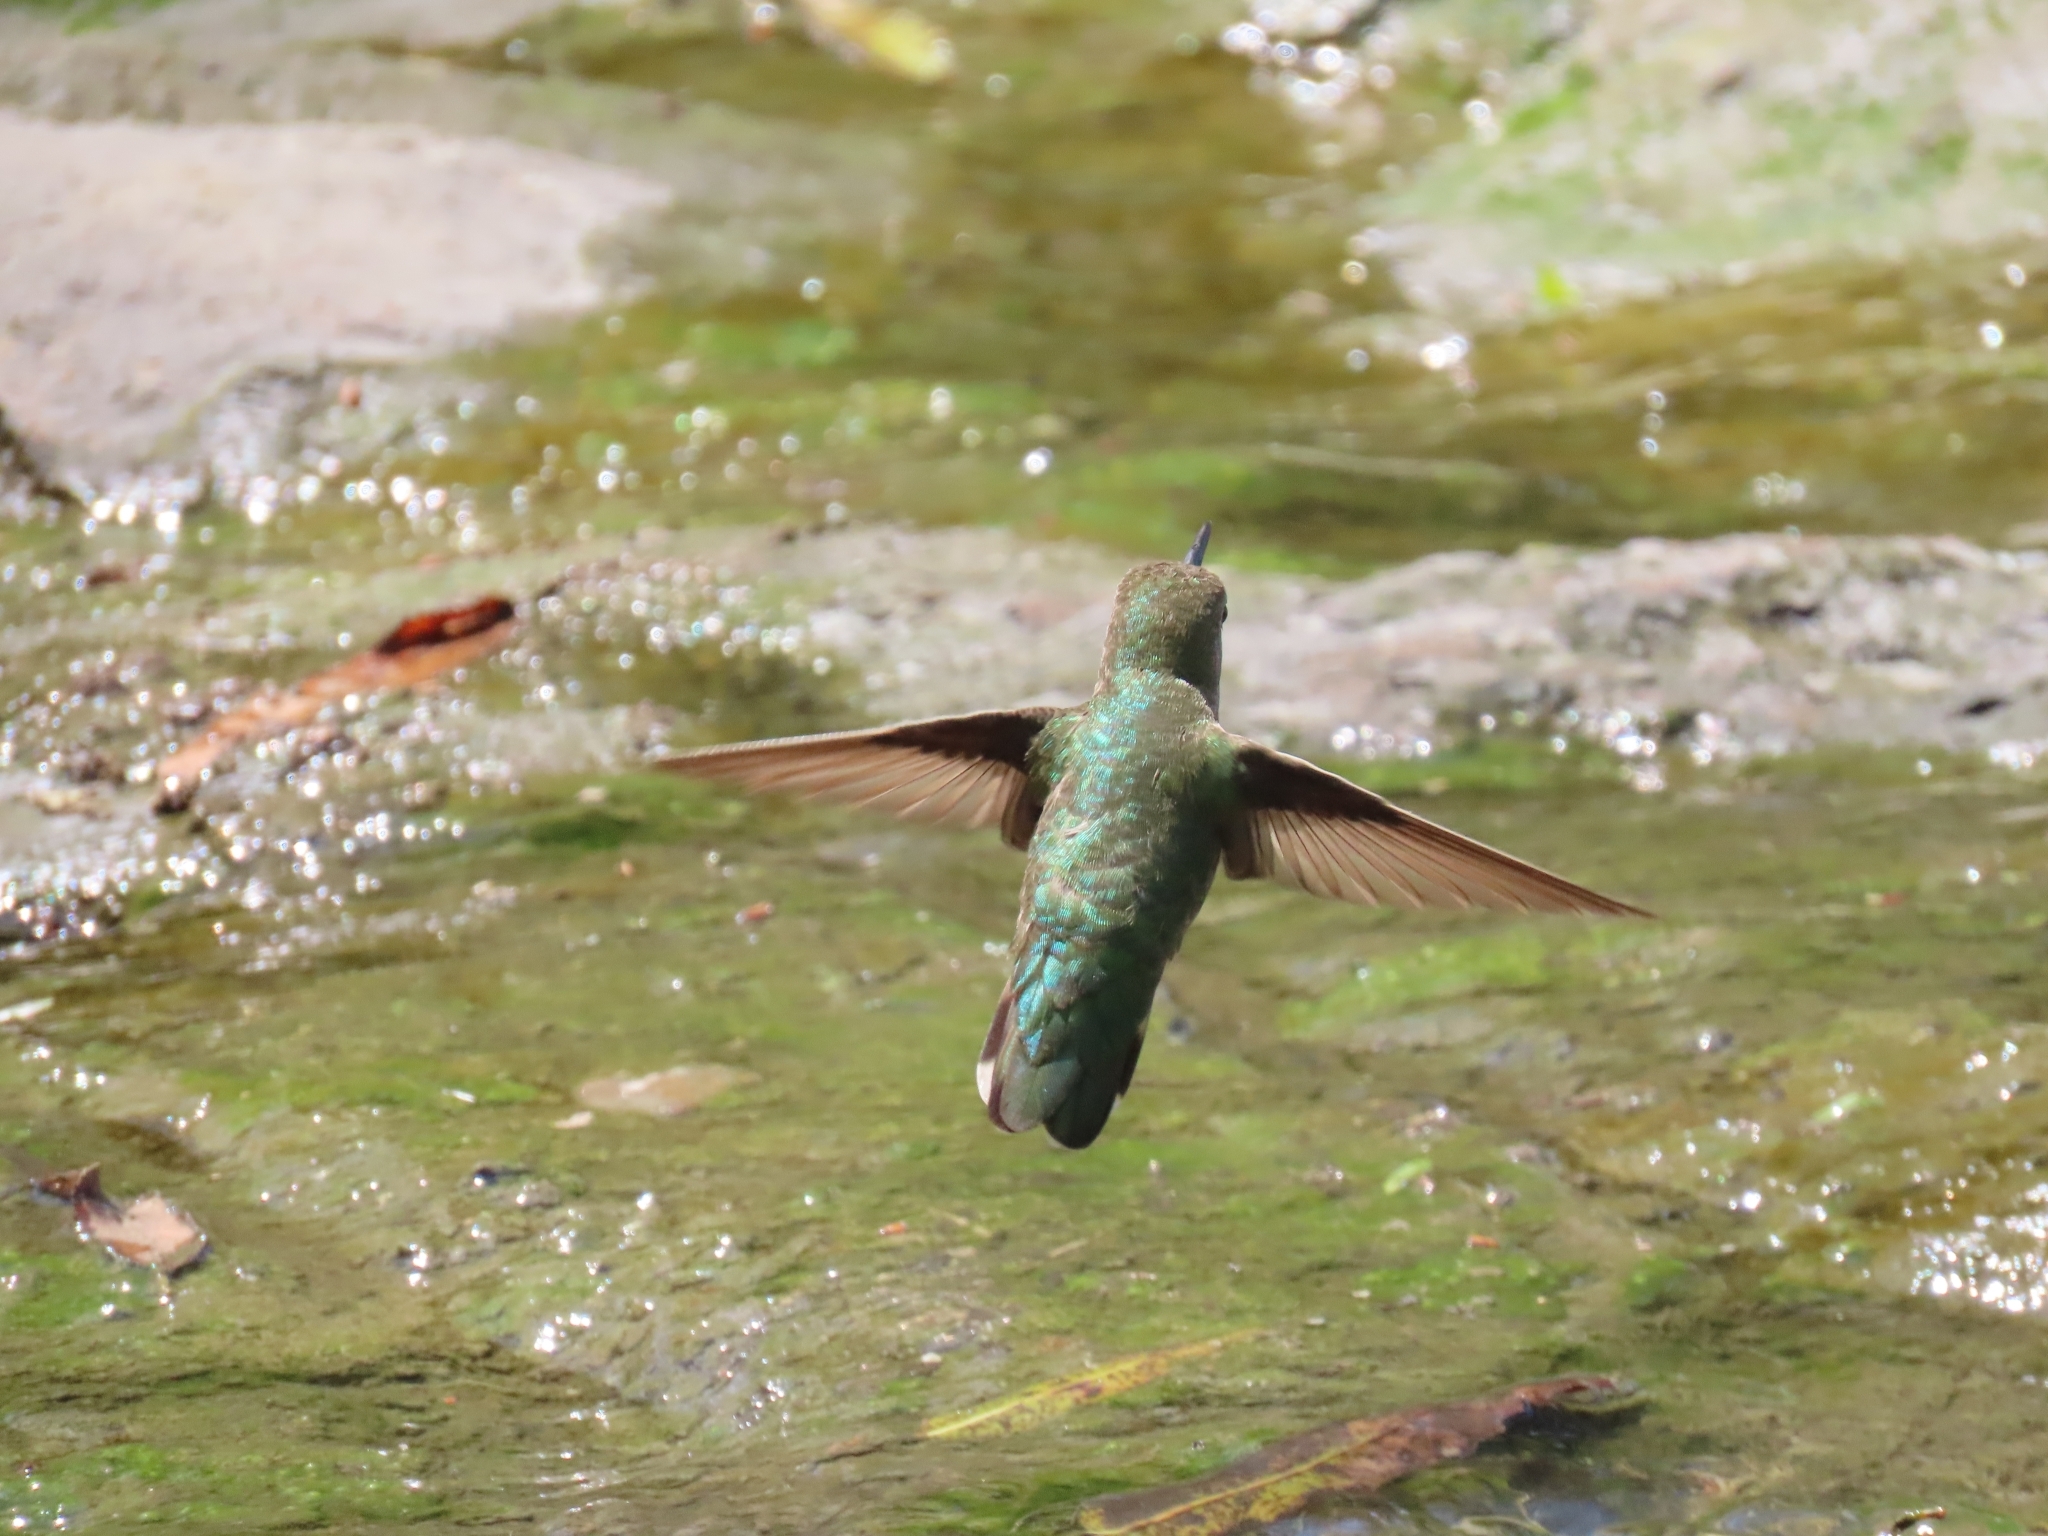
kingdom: Animalia
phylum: Chordata
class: Aves
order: Apodiformes
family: Trochilidae
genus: Calypte
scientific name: Calypte anna
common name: Anna's hummingbird
